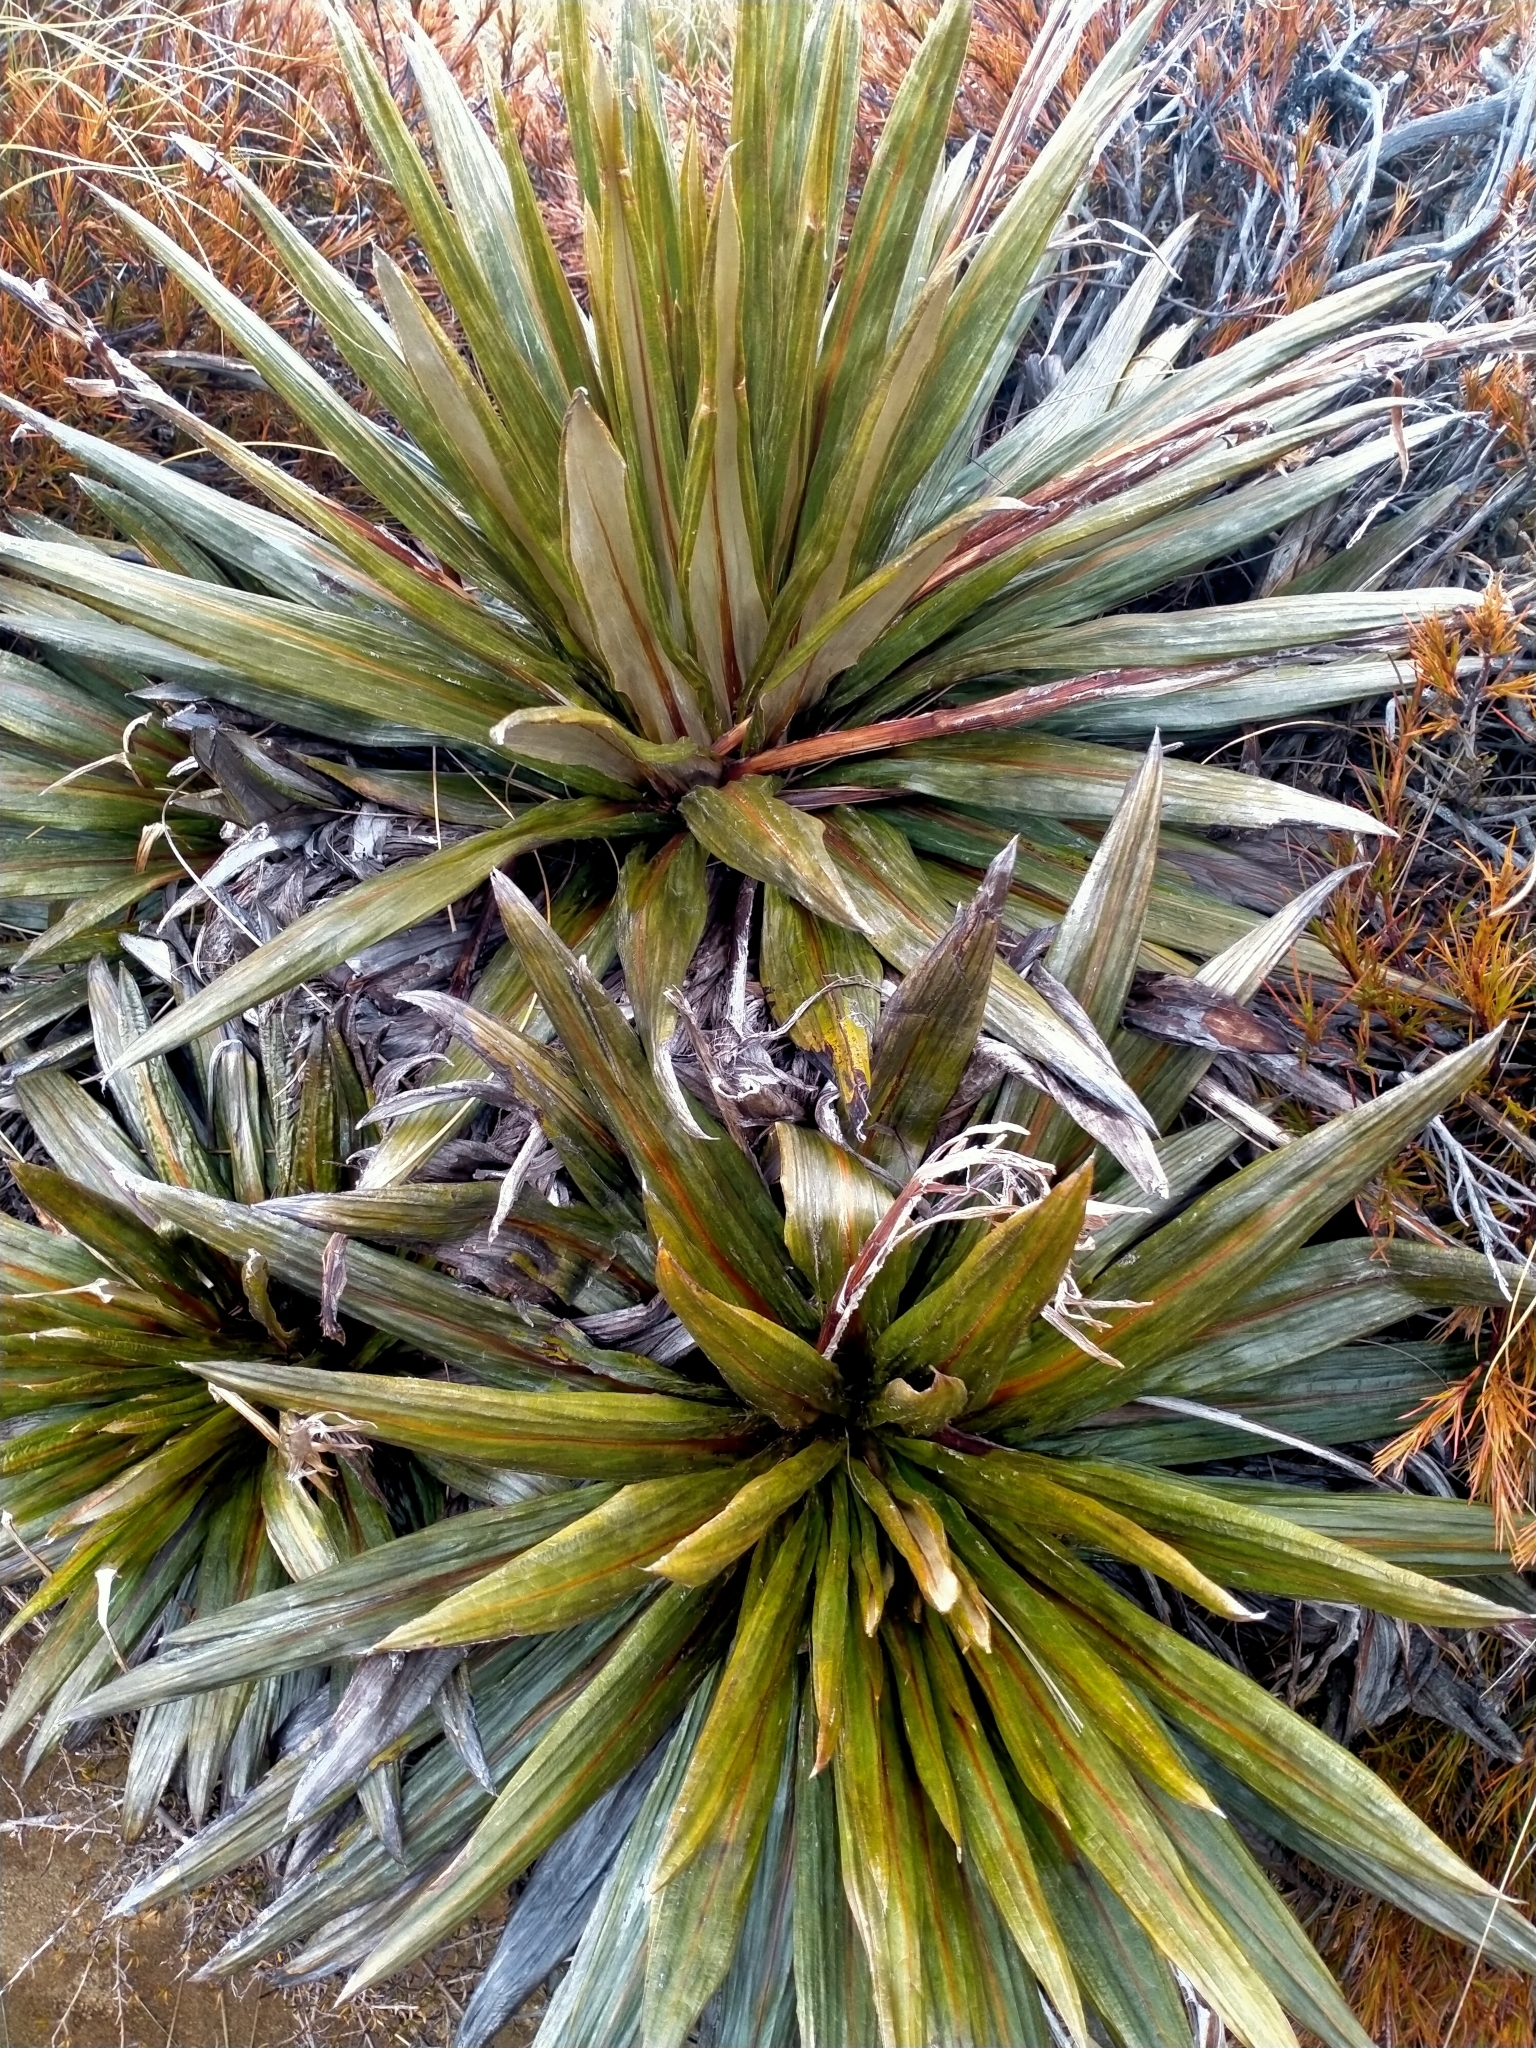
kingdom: Plantae
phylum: Tracheophyta
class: Magnoliopsida
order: Asterales
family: Asteraceae
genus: Celmisia
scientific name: Celmisia coriacea
